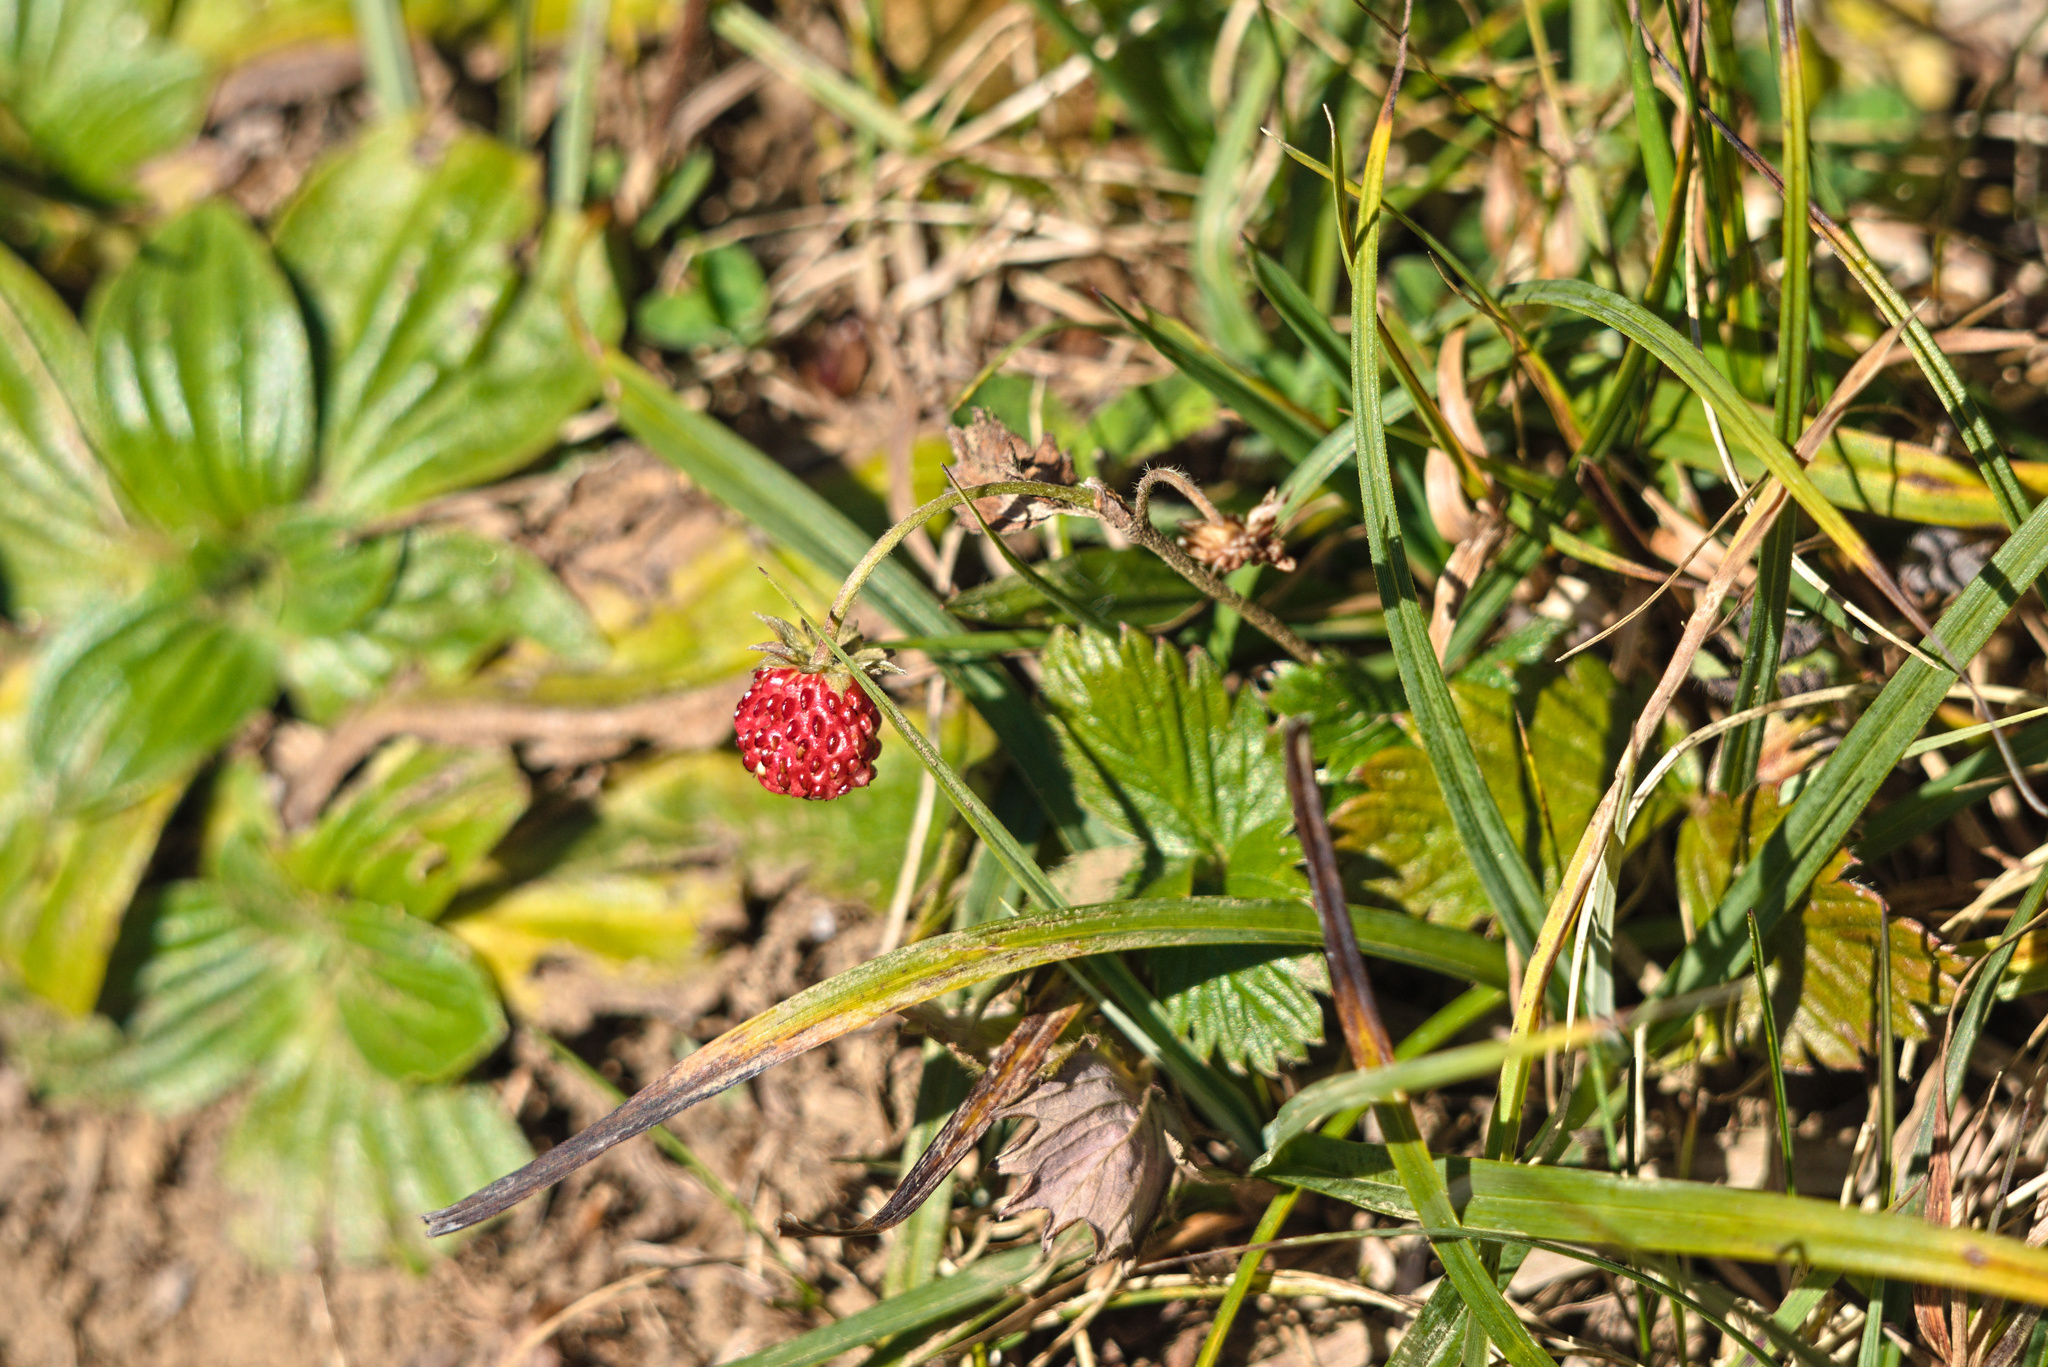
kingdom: Plantae
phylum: Tracheophyta
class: Magnoliopsida
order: Rosales
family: Rosaceae
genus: Fragaria
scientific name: Fragaria vesca
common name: Wild strawberry
